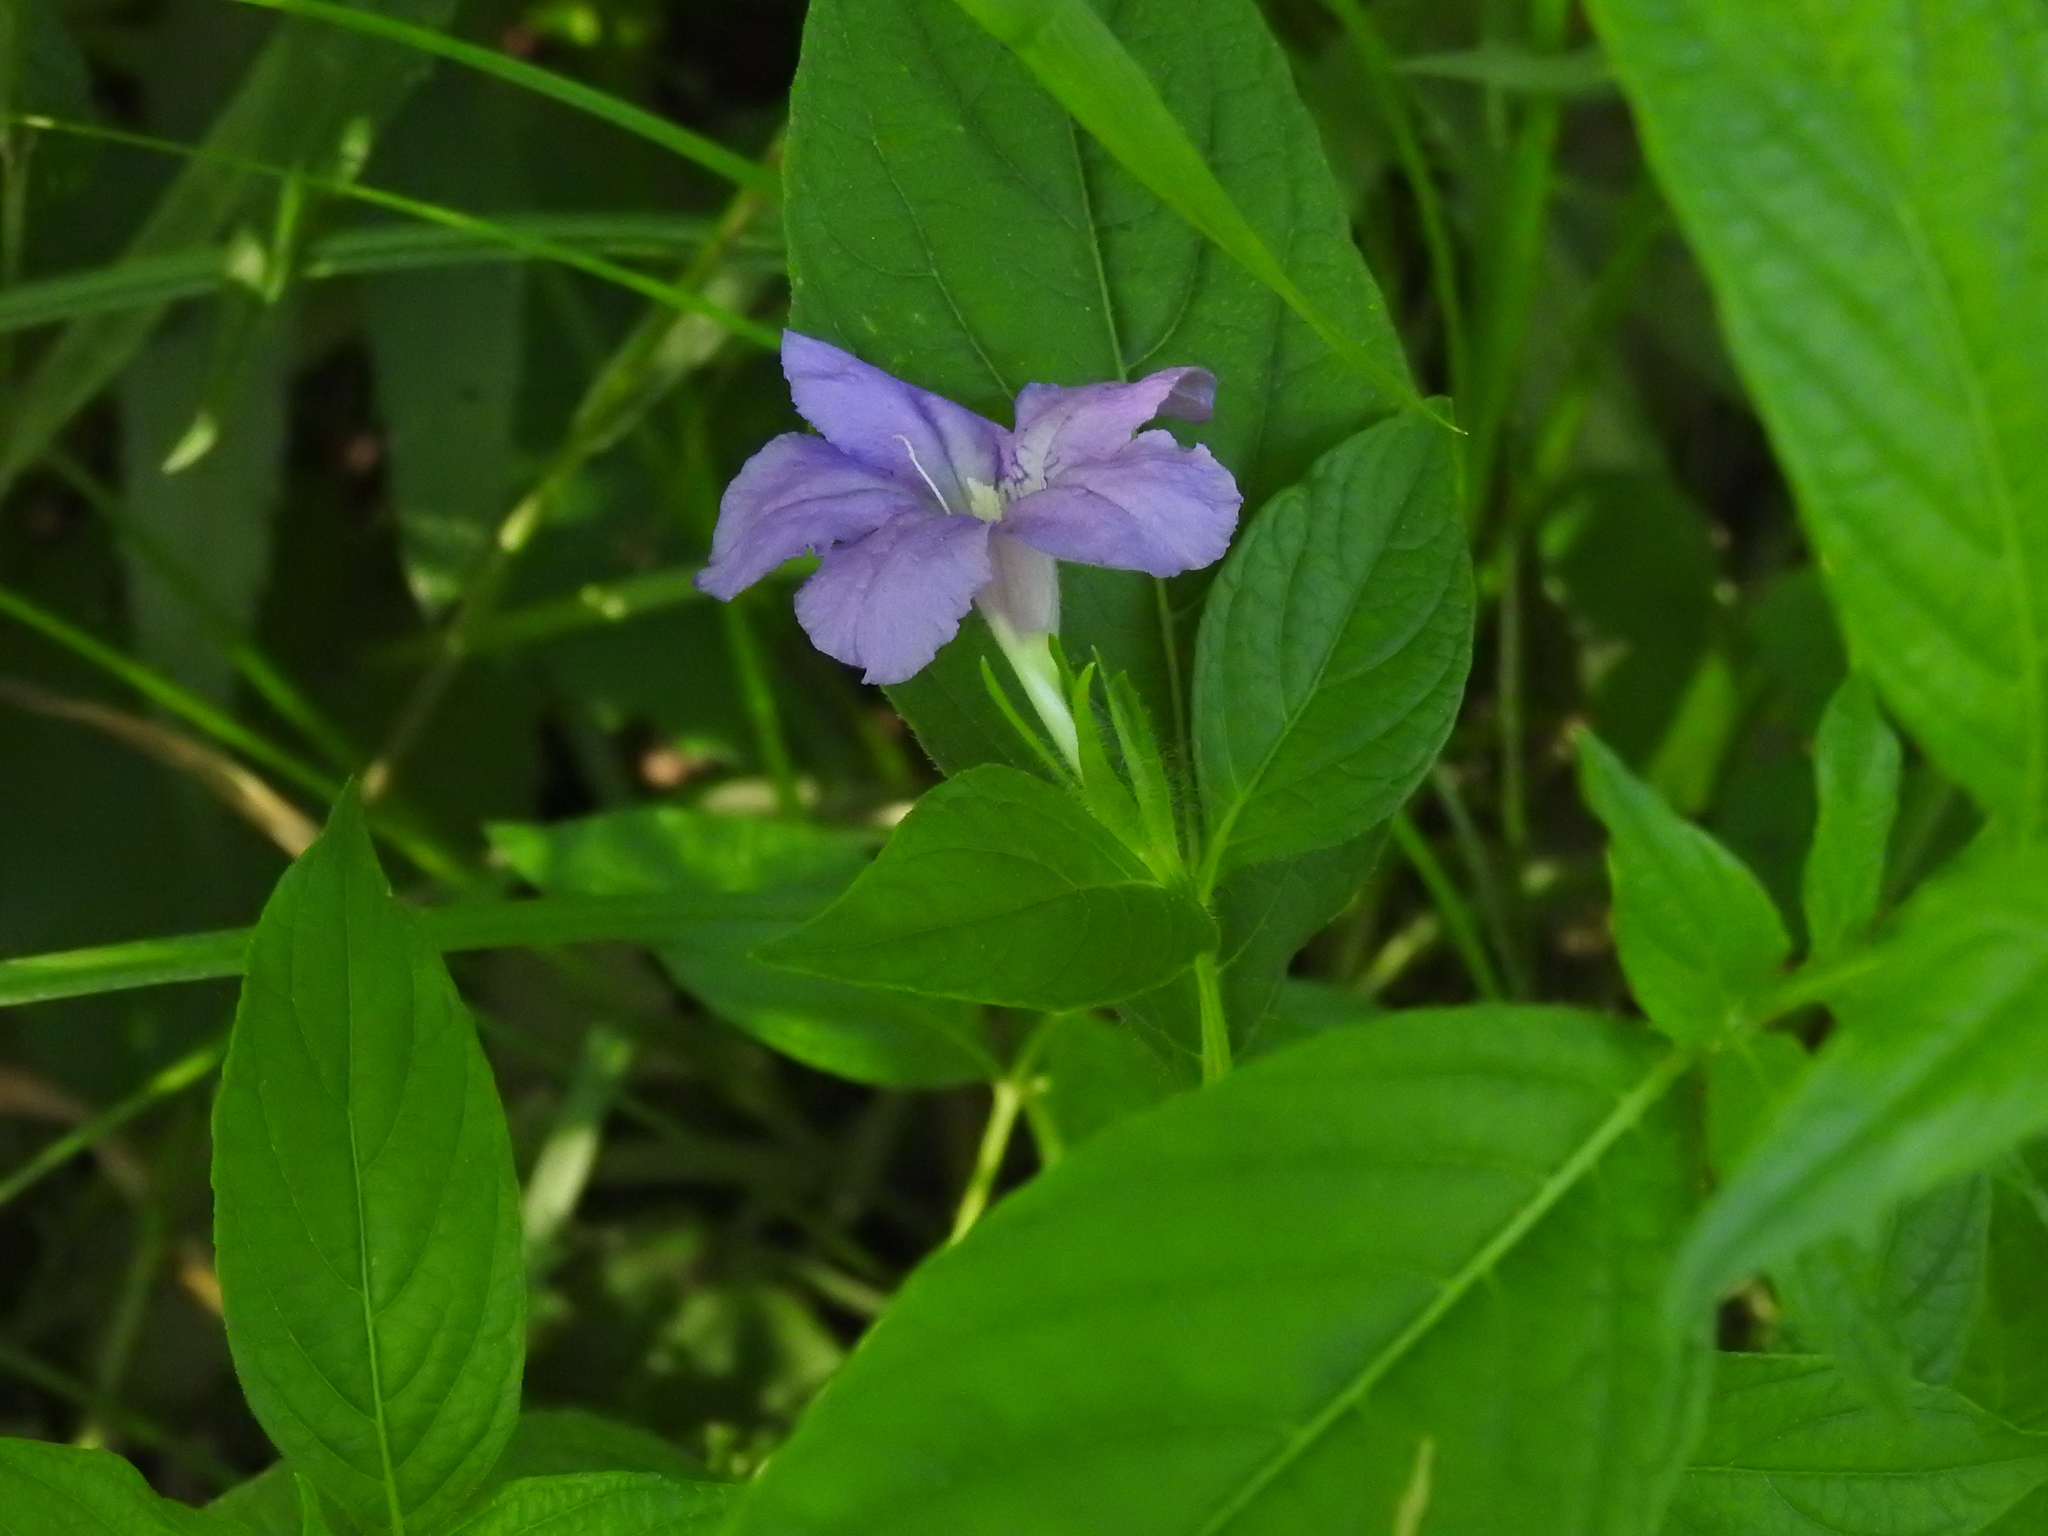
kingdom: Plantae
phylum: Tracheophyta
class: Magnoliopsida
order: Lamiales
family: Acanthaceae
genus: Ruellia
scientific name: Ruellia strepens
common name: Limestone wild petunia
